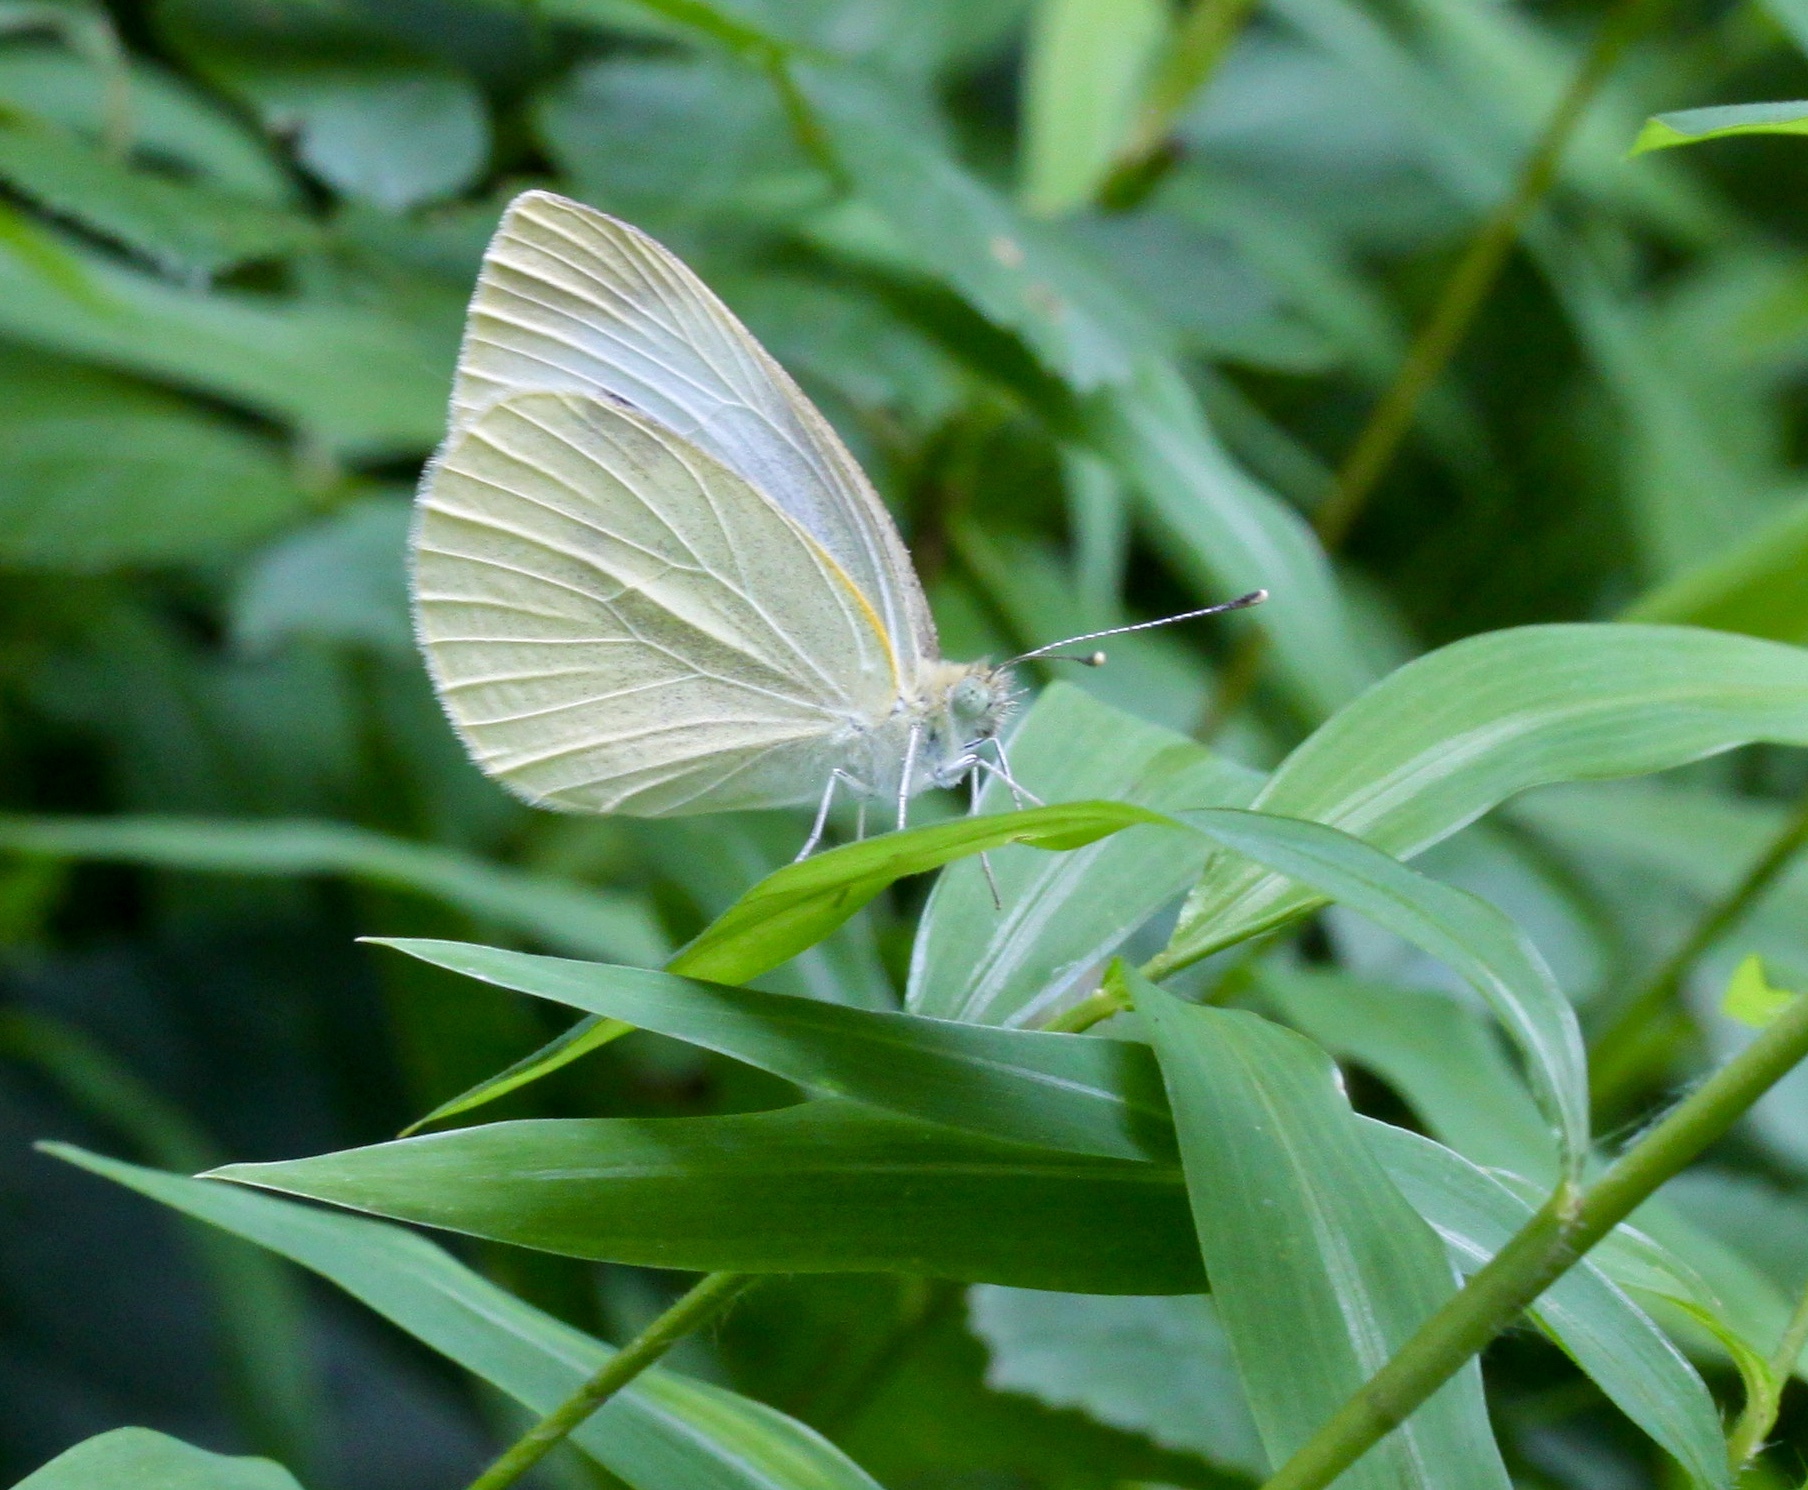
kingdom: Animalia
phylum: Arthropoda
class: Insecta
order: Lepidoptera
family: Pieridae
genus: Pieris
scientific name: Pieris rapae
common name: Small white
